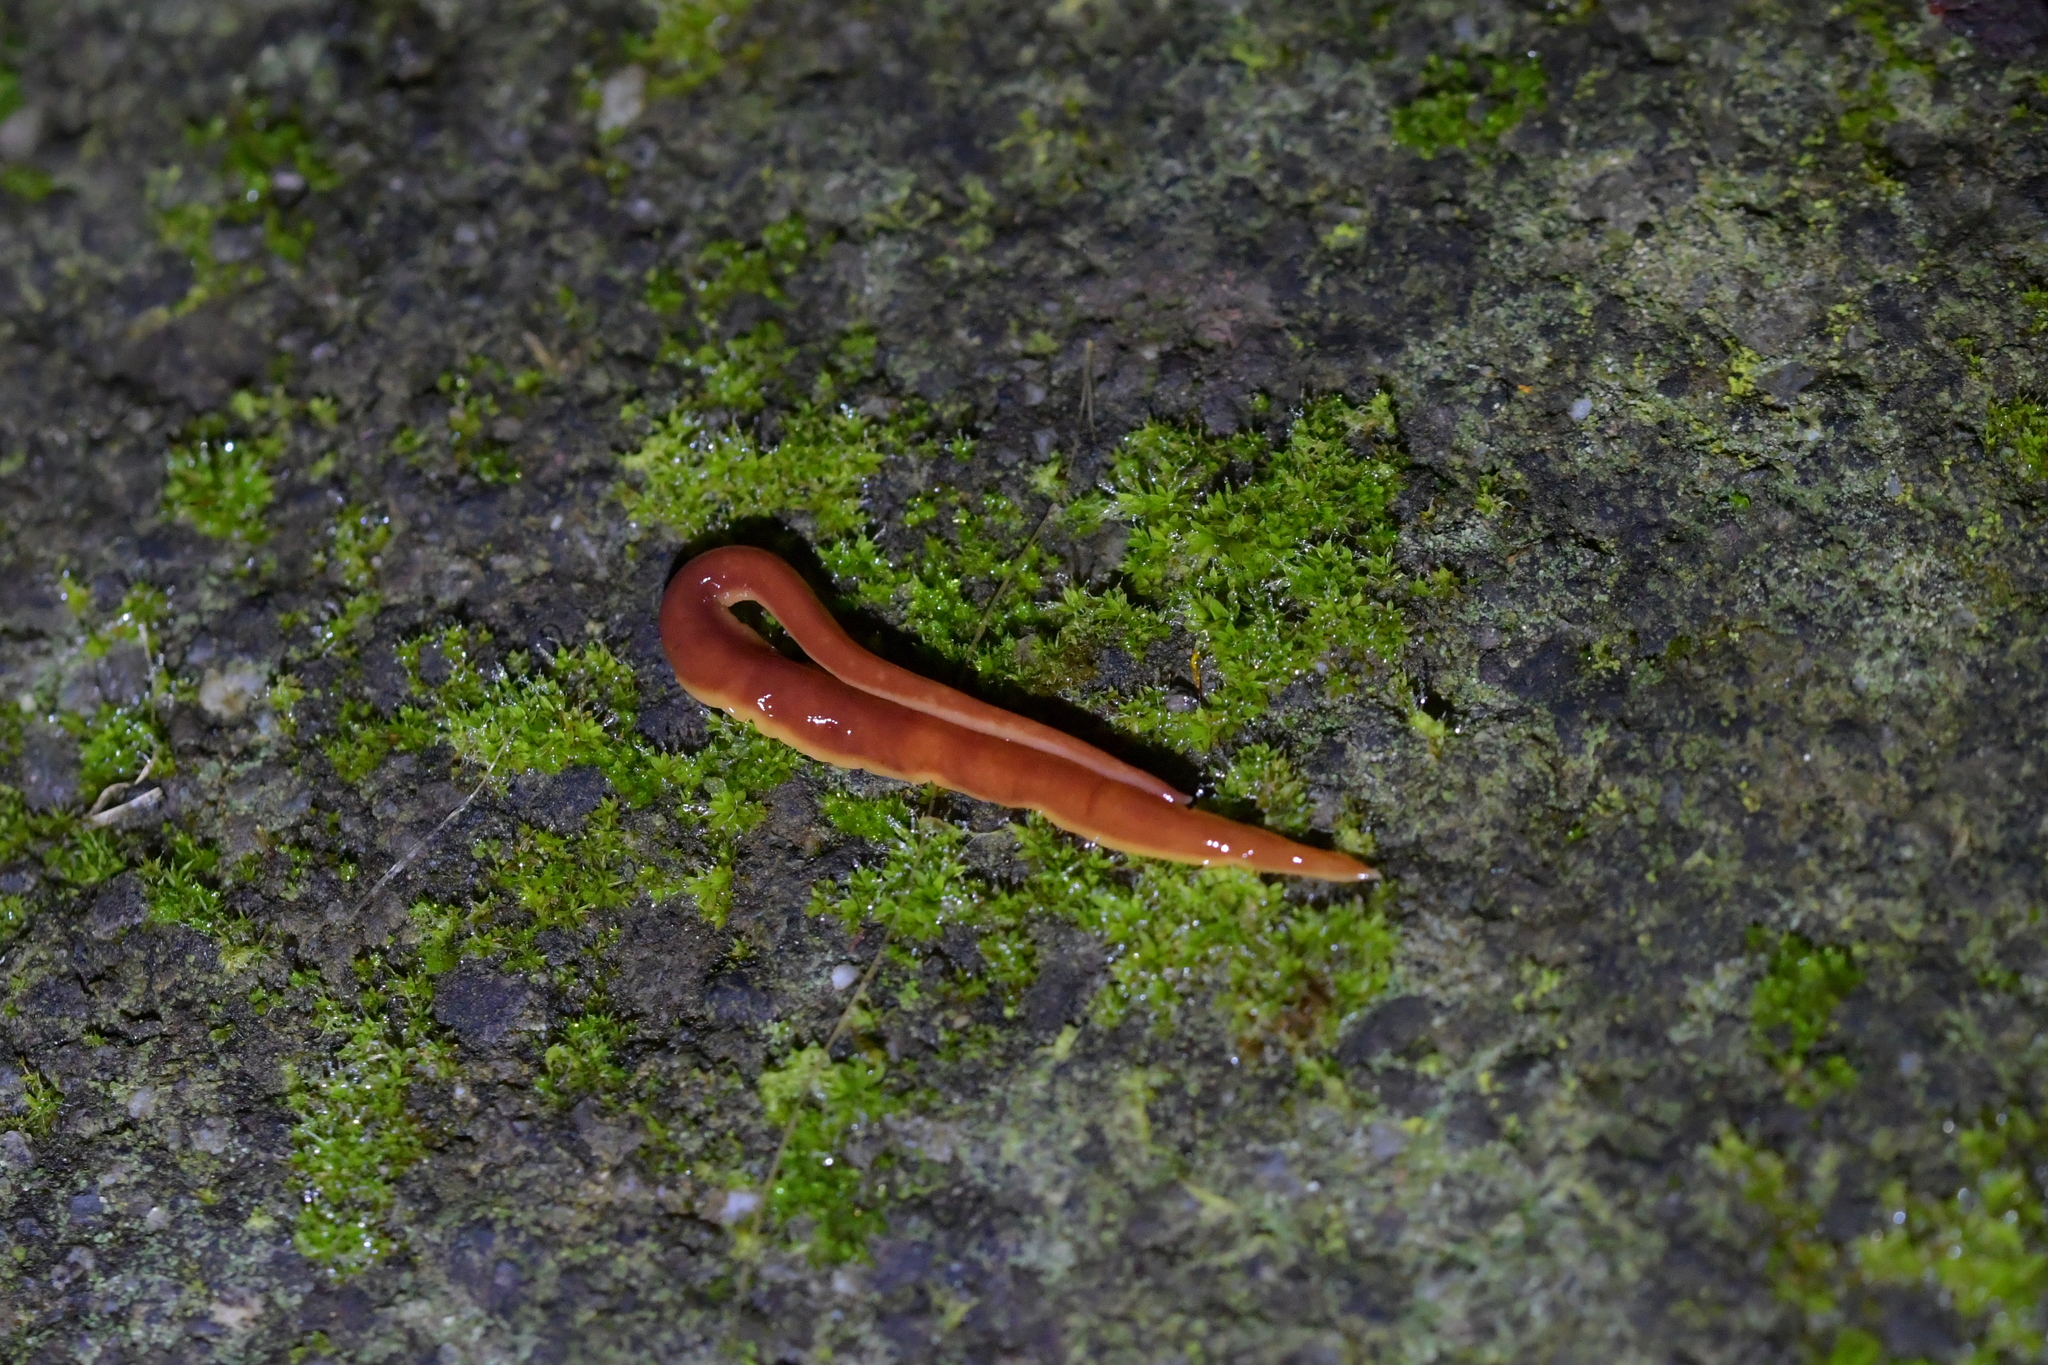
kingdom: Animalia
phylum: Platyhelminthes
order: Tricladida
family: Geoplanidae
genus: Arthurdendyus
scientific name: Arthurdendyus testaceus
